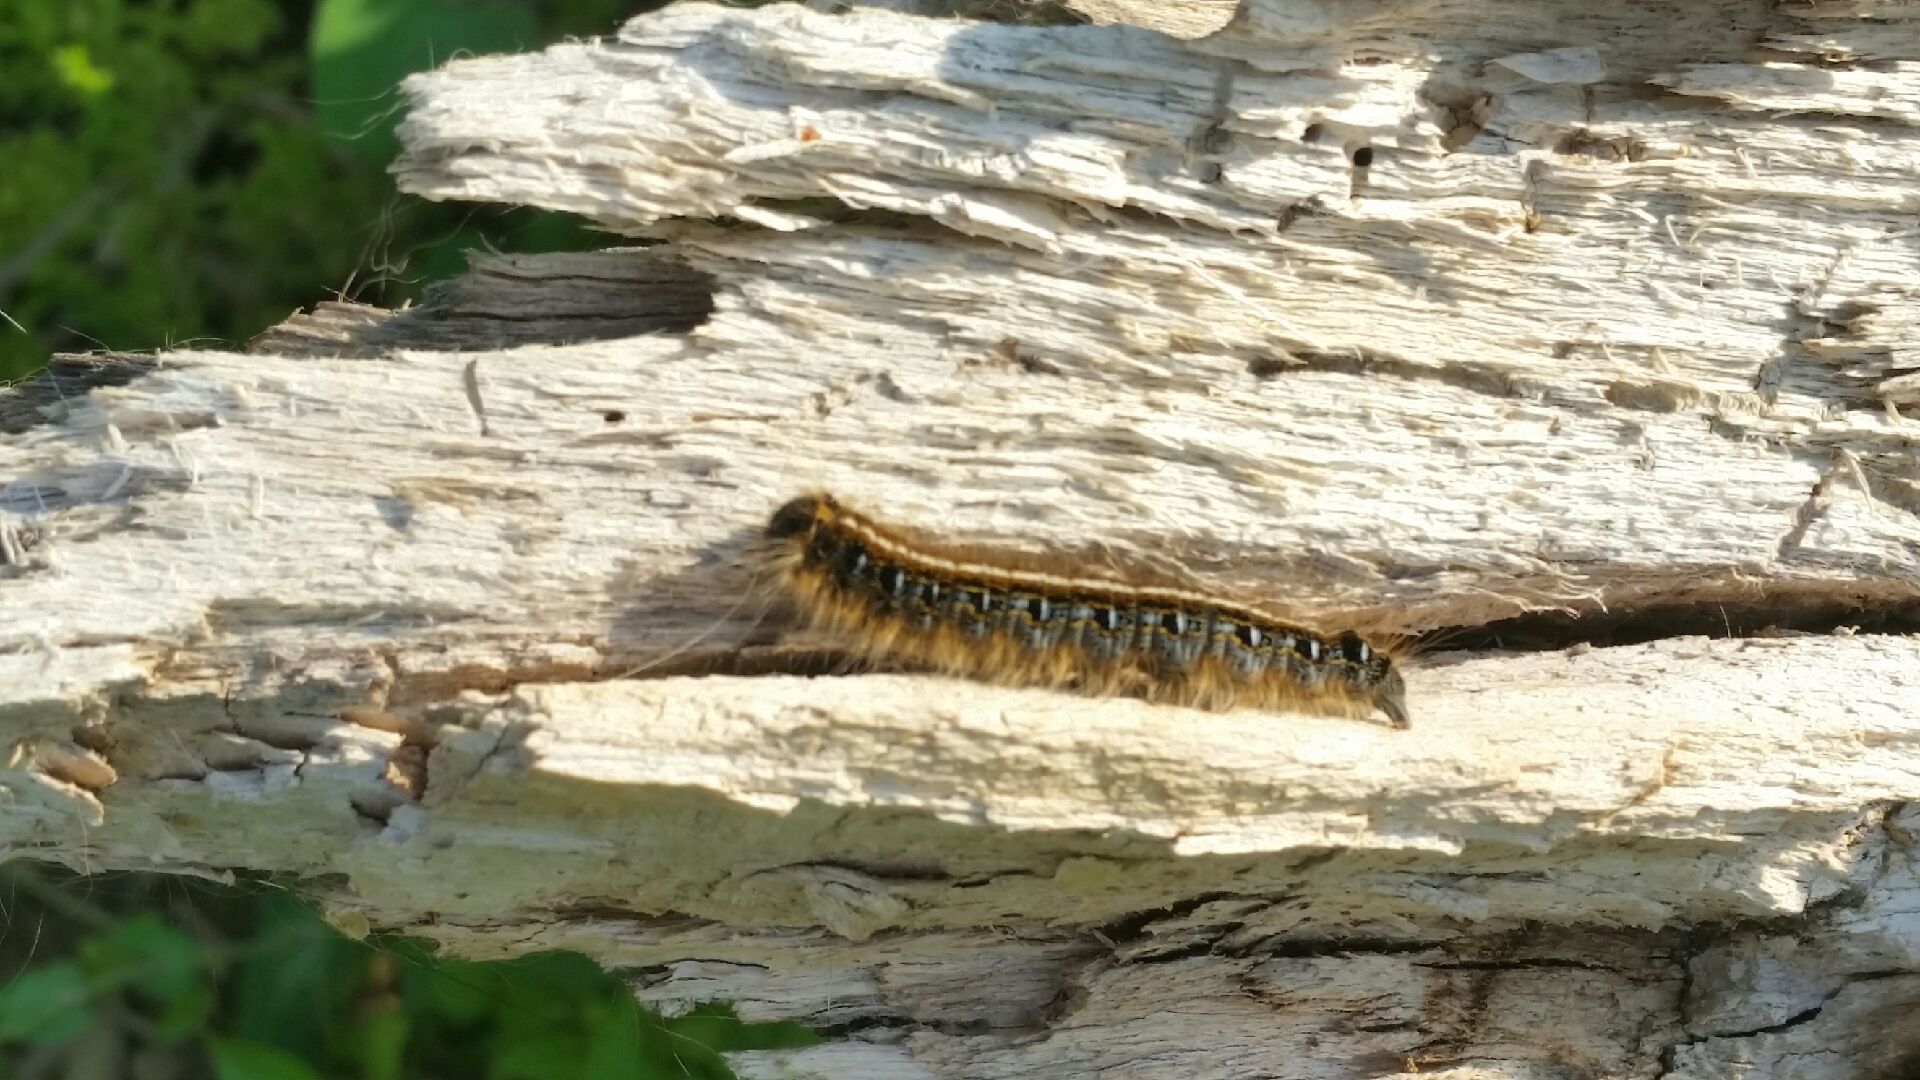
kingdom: Animalia
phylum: Arthropoda
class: Insecta
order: Lepidoptera
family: Lasiocampidae
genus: Malacosoma
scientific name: Malacosoma americana
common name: Eastern tent caterpillar moth
